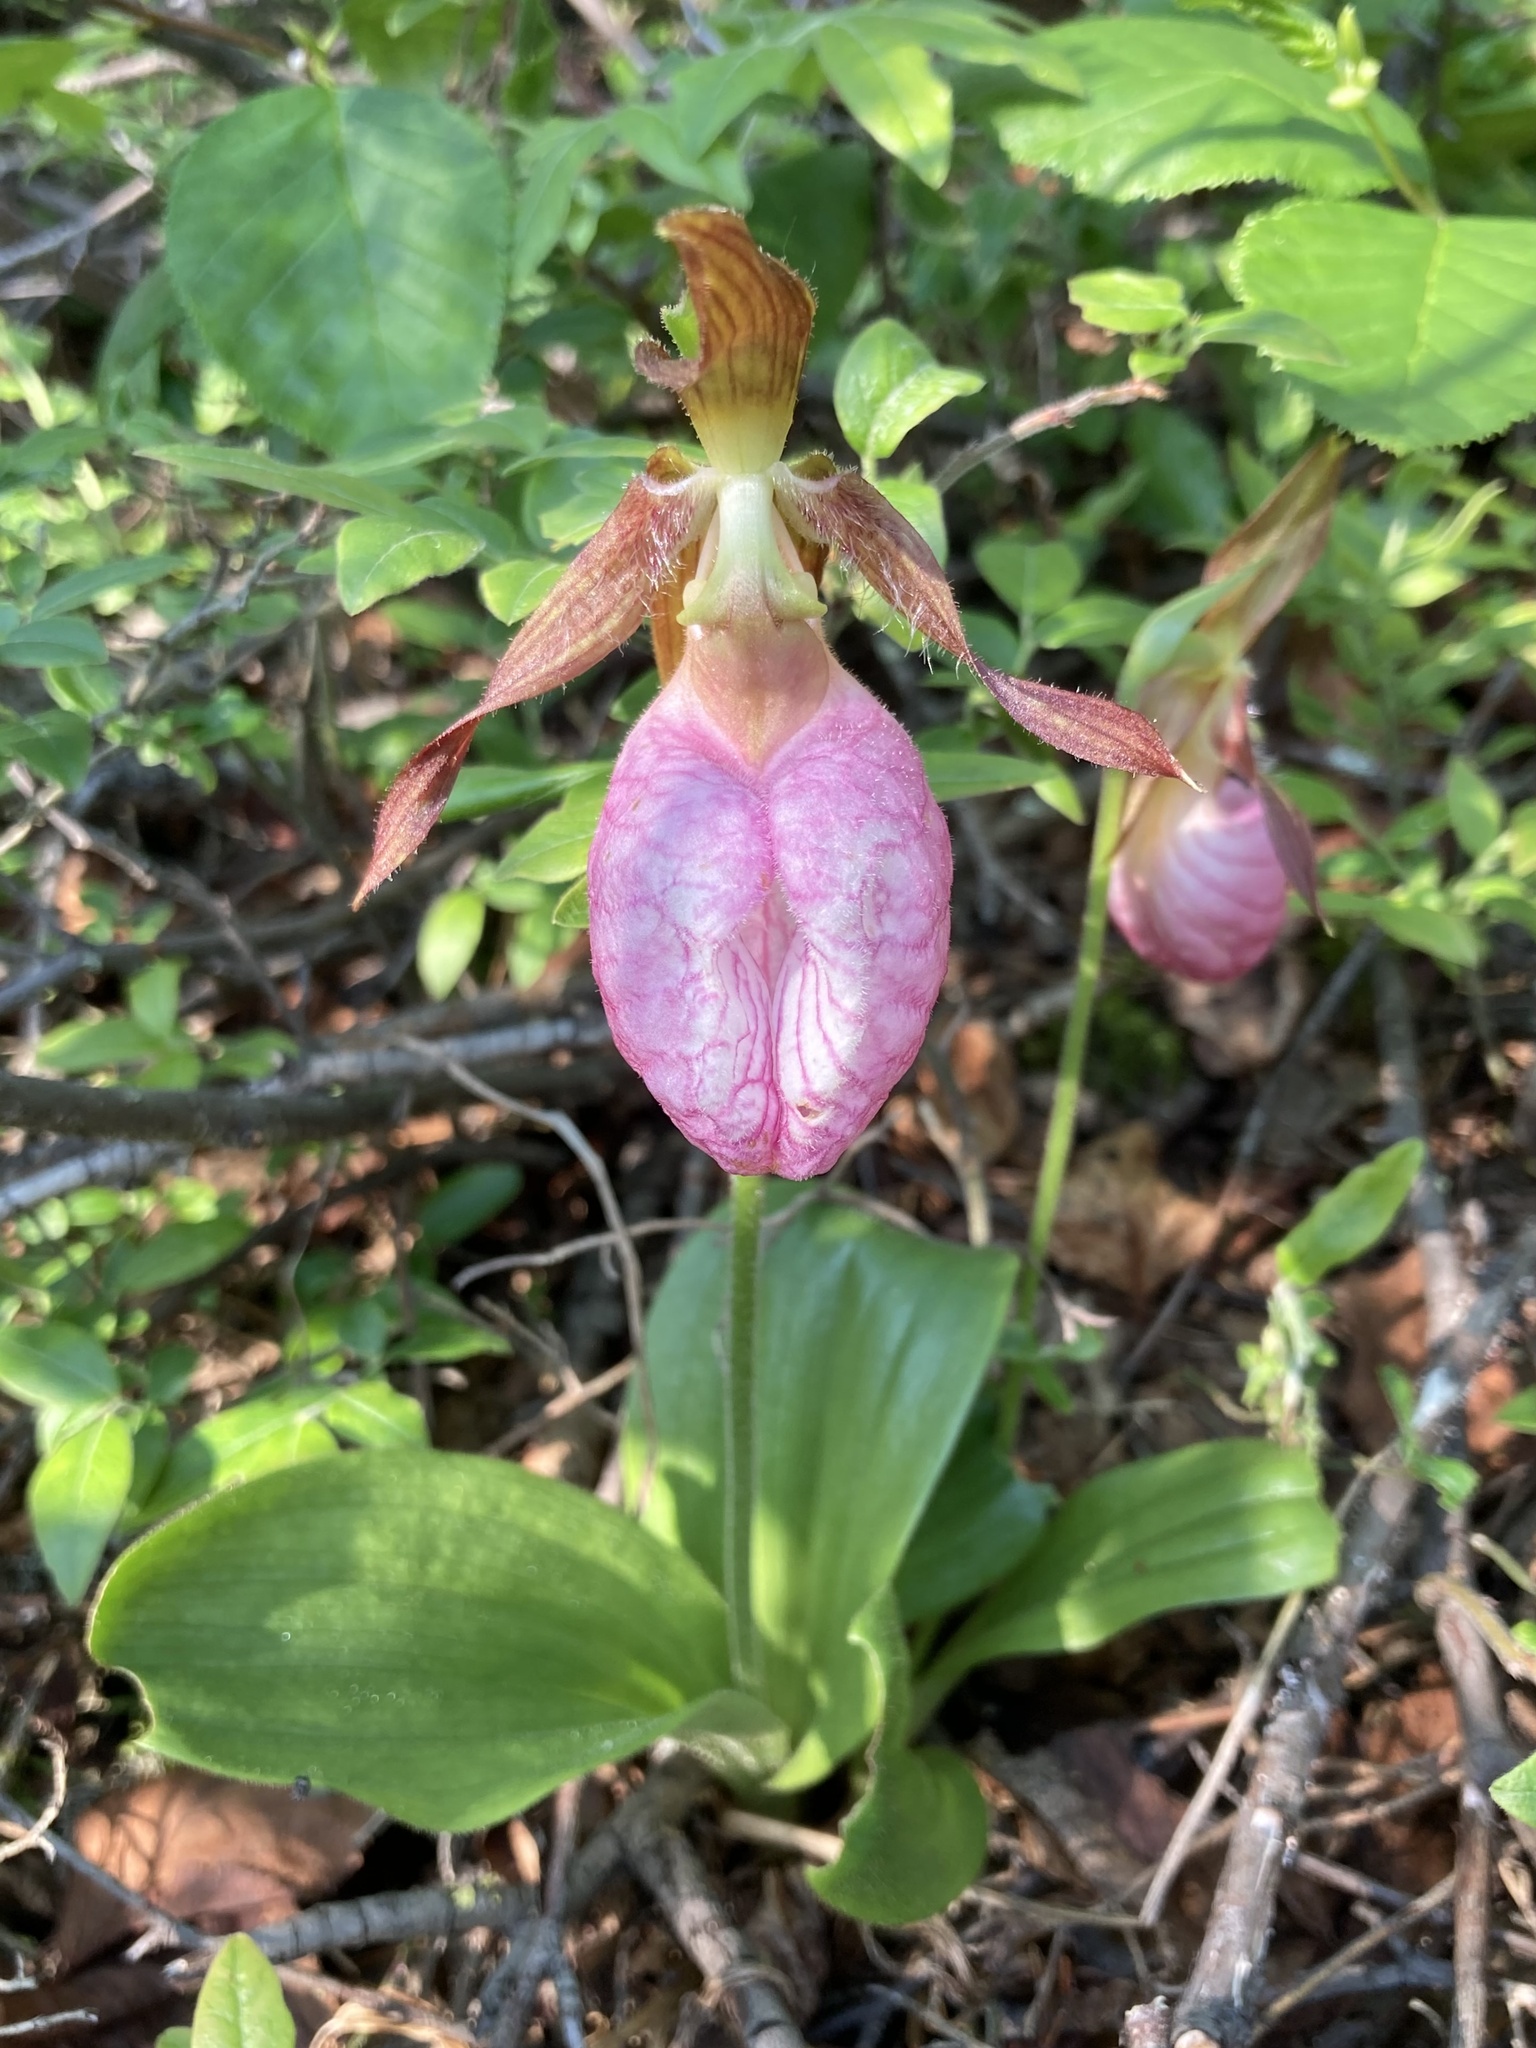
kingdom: Plantae
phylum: Tracheophyta
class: Liliopsida
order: Asparagales
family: Orchidaceae
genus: Cypripedium
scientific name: Cypripedium acaule
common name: Pink lady's-slipper
